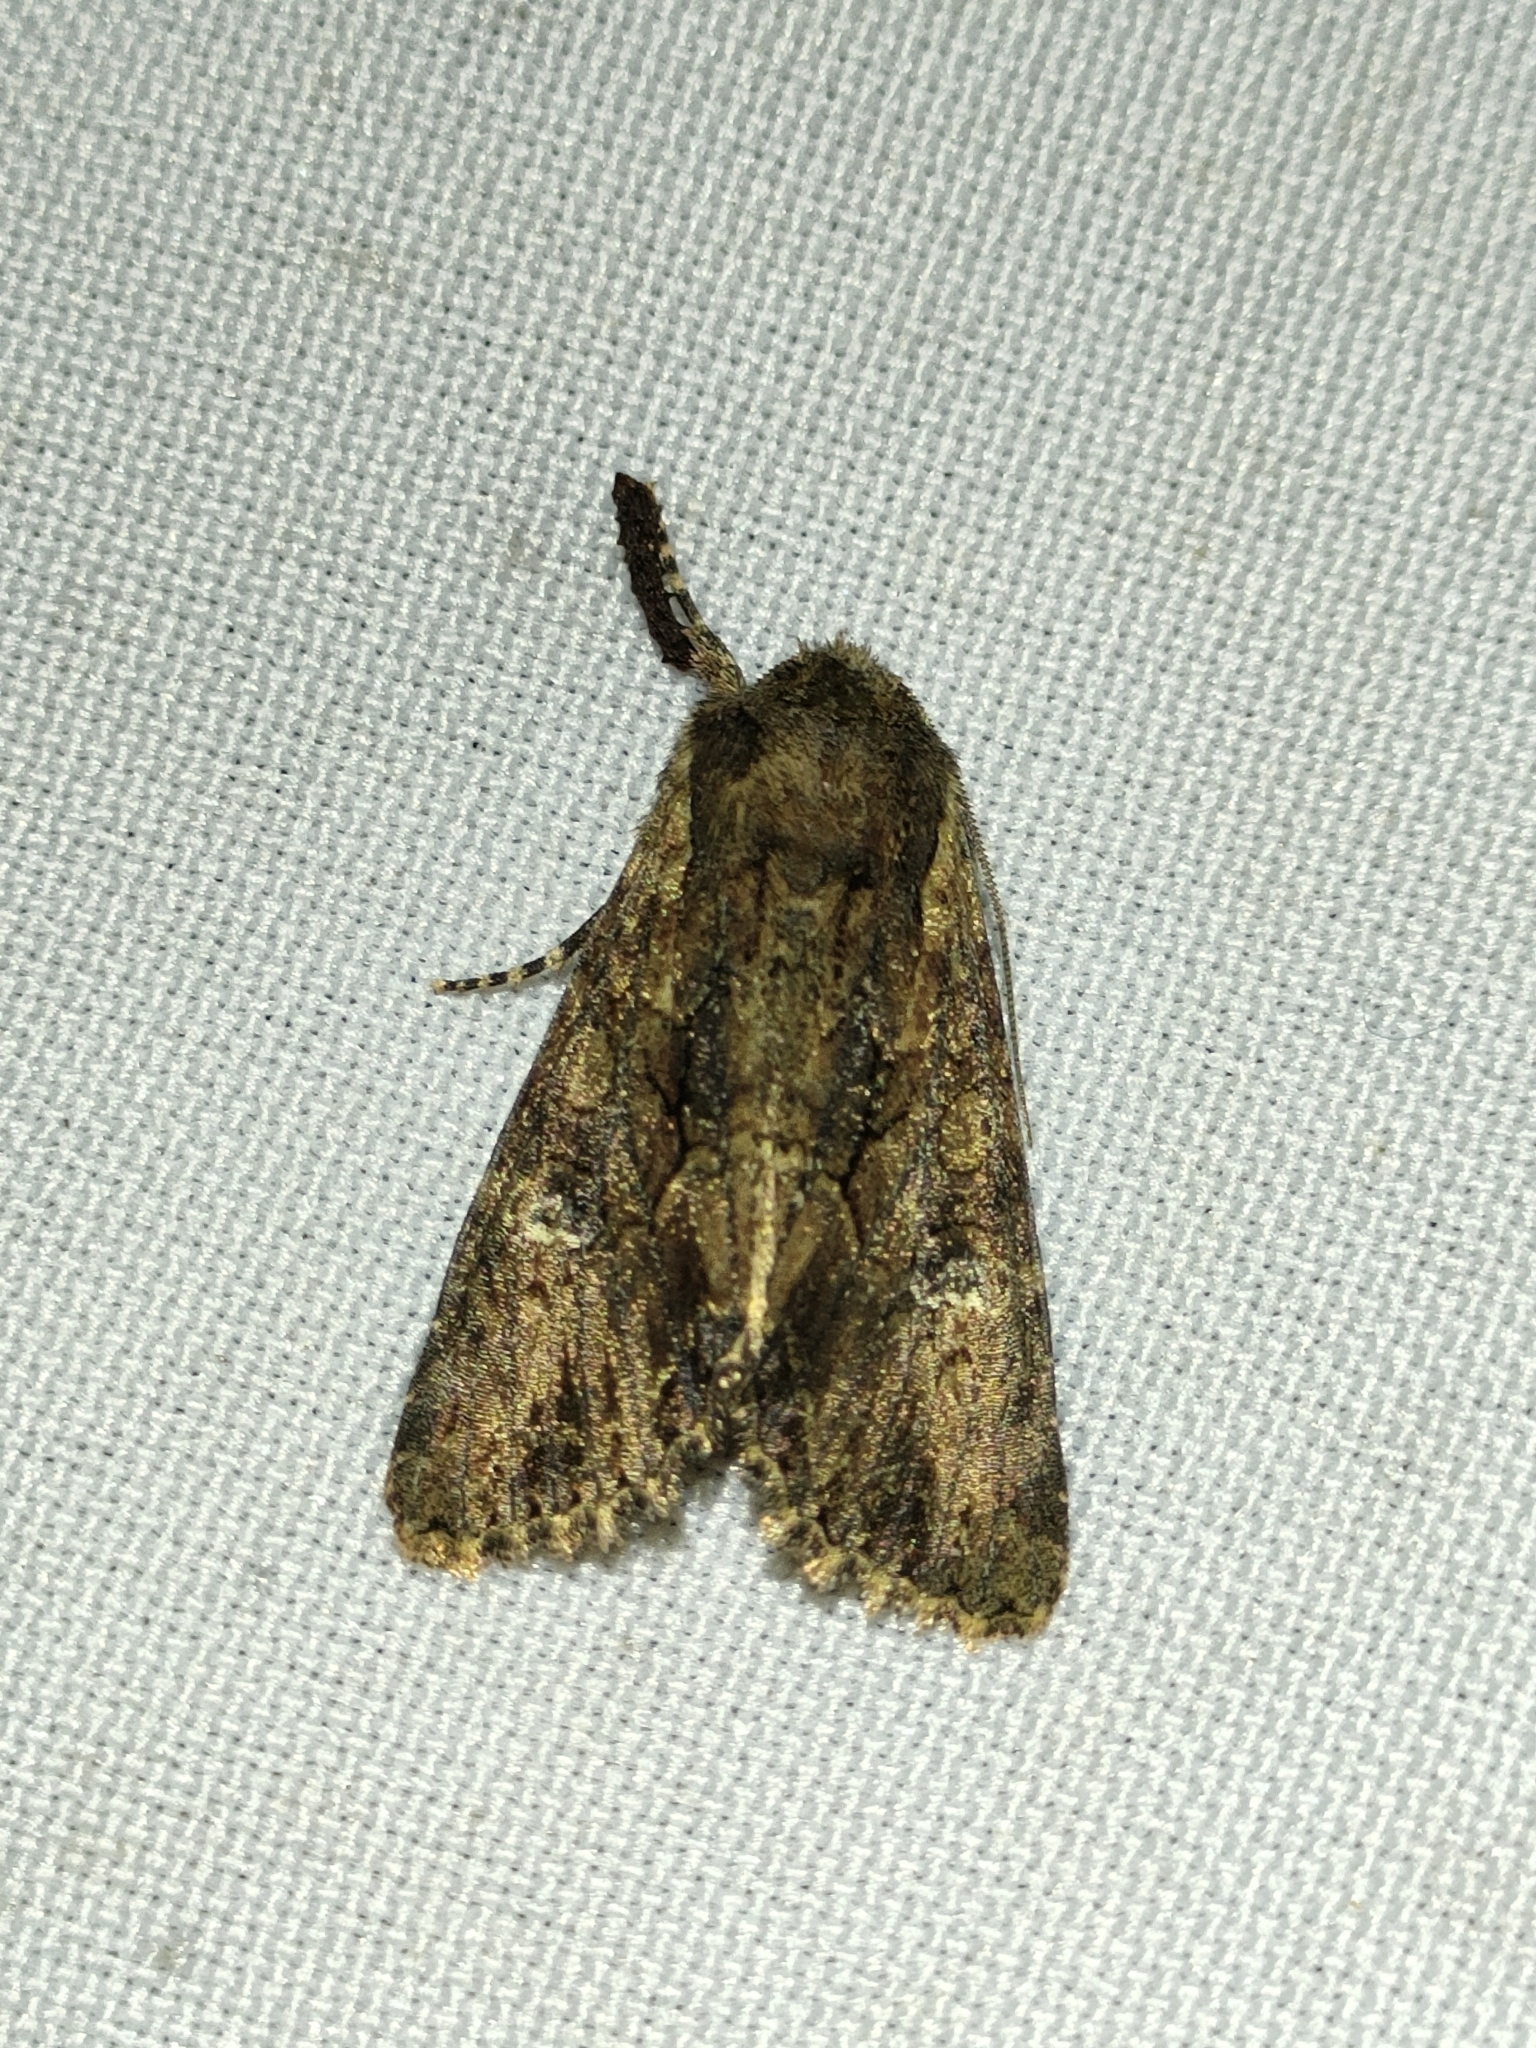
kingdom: Animalia
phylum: Arthropoda
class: Insecta
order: Lepidoptera
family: Noctuidae
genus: Mniotype
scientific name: Mniotype occidentalis
